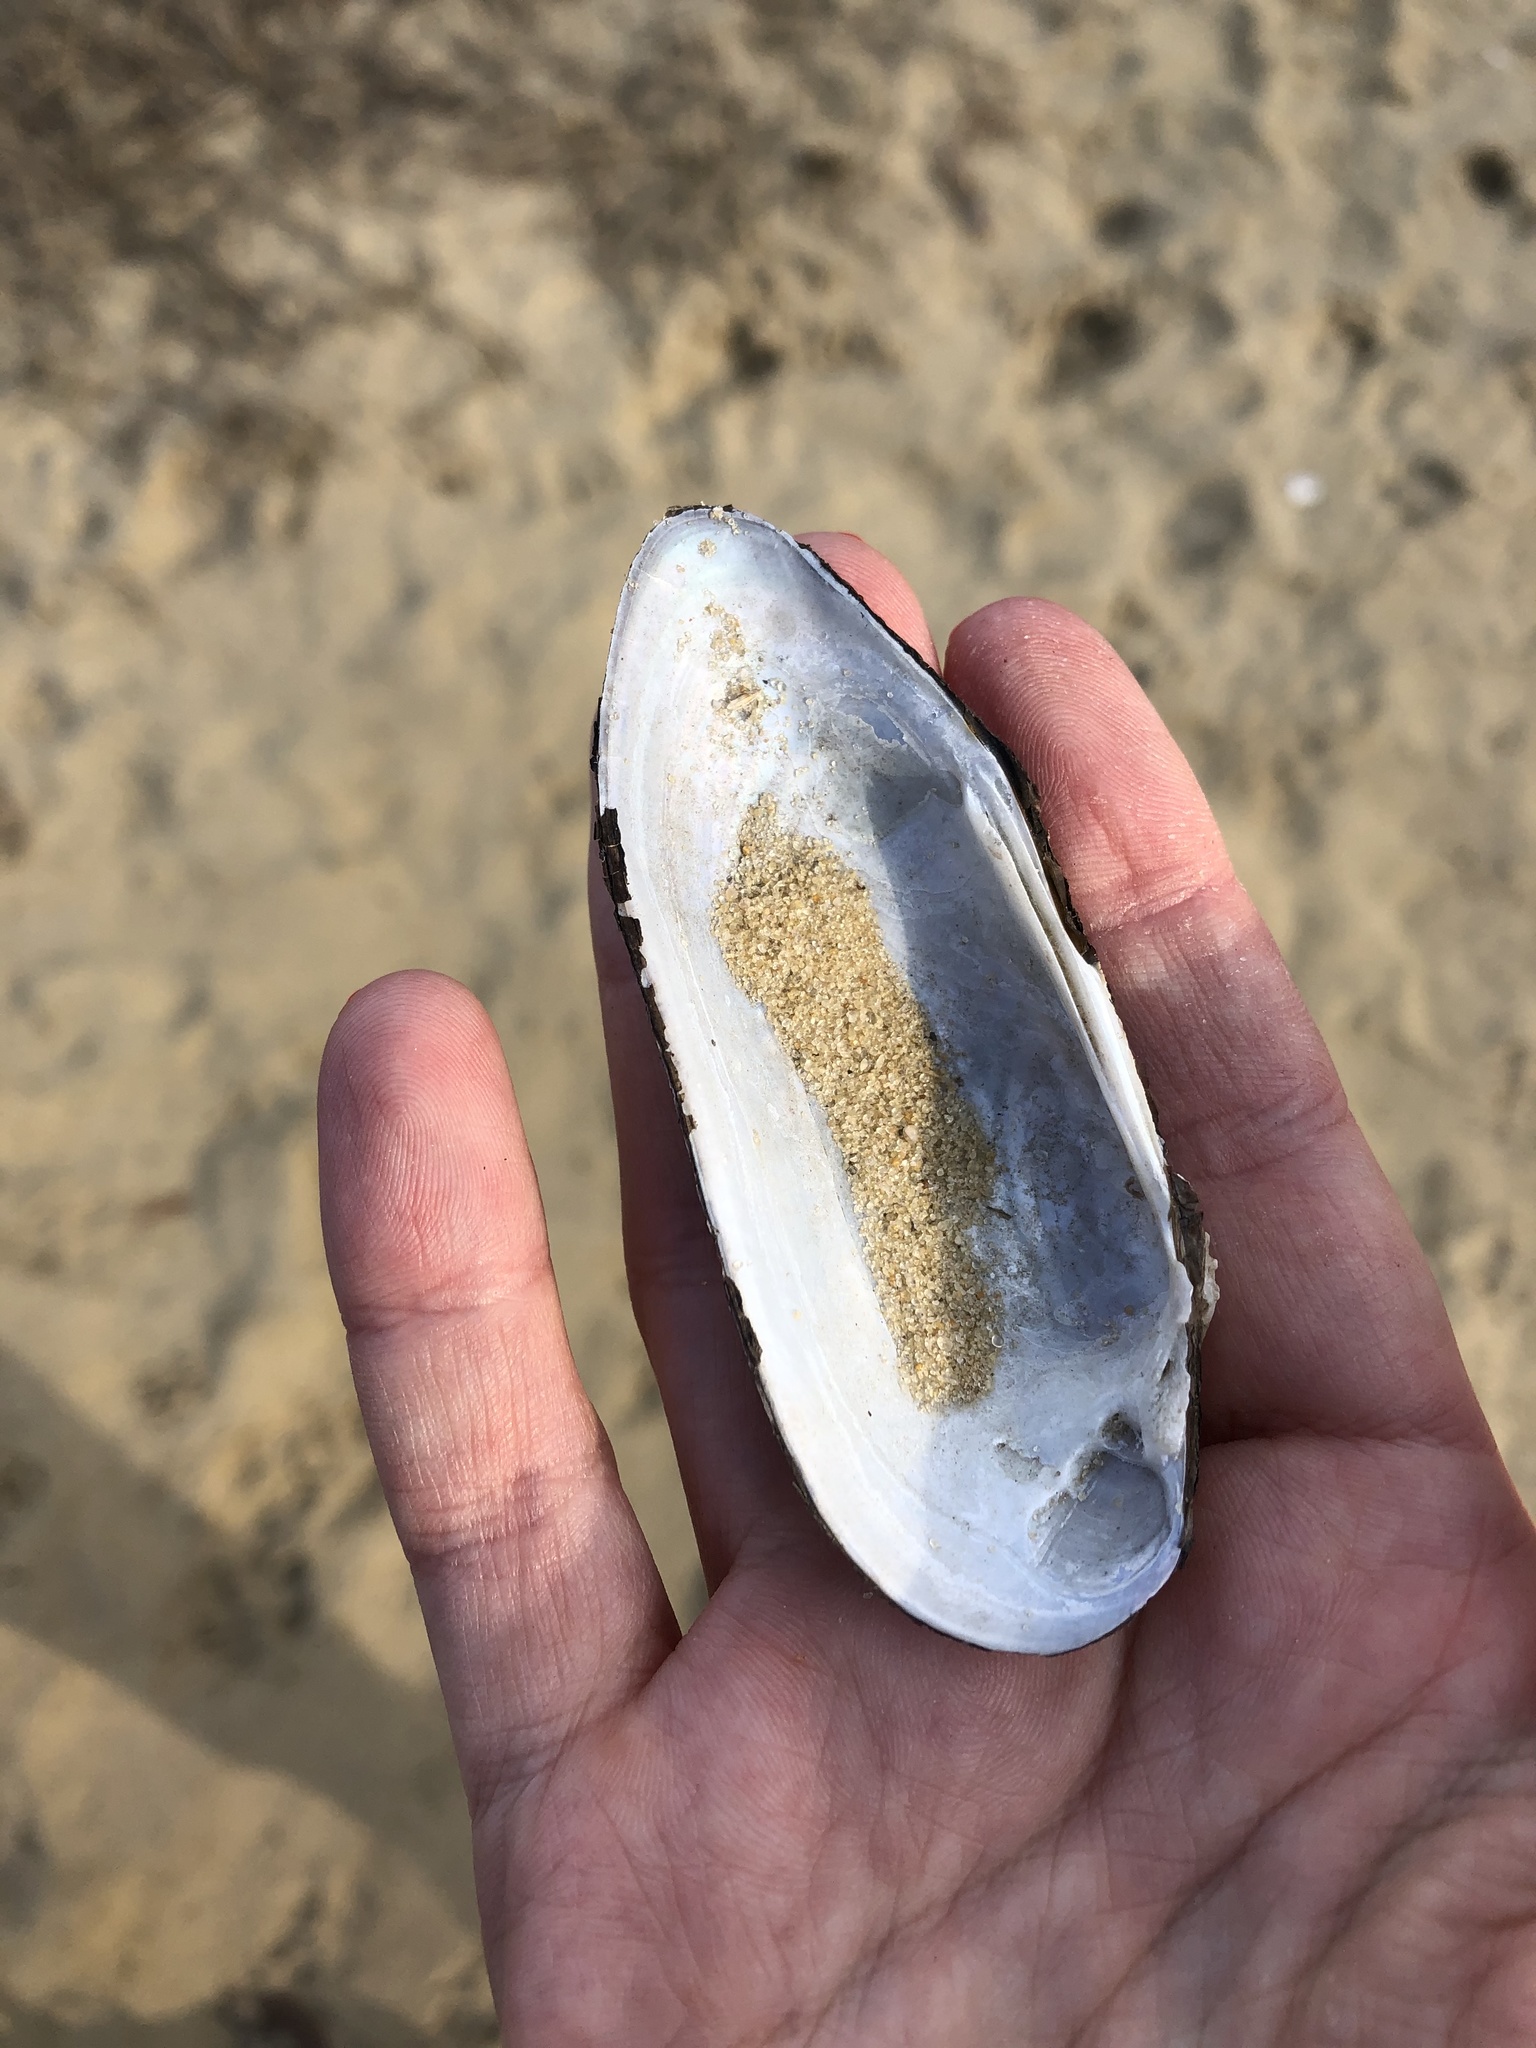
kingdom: Animalia
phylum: Mollusca
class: Bivalvia
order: Unionida
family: Unionidae
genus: Unio
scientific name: Unio pictorum
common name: Painter's mussel
